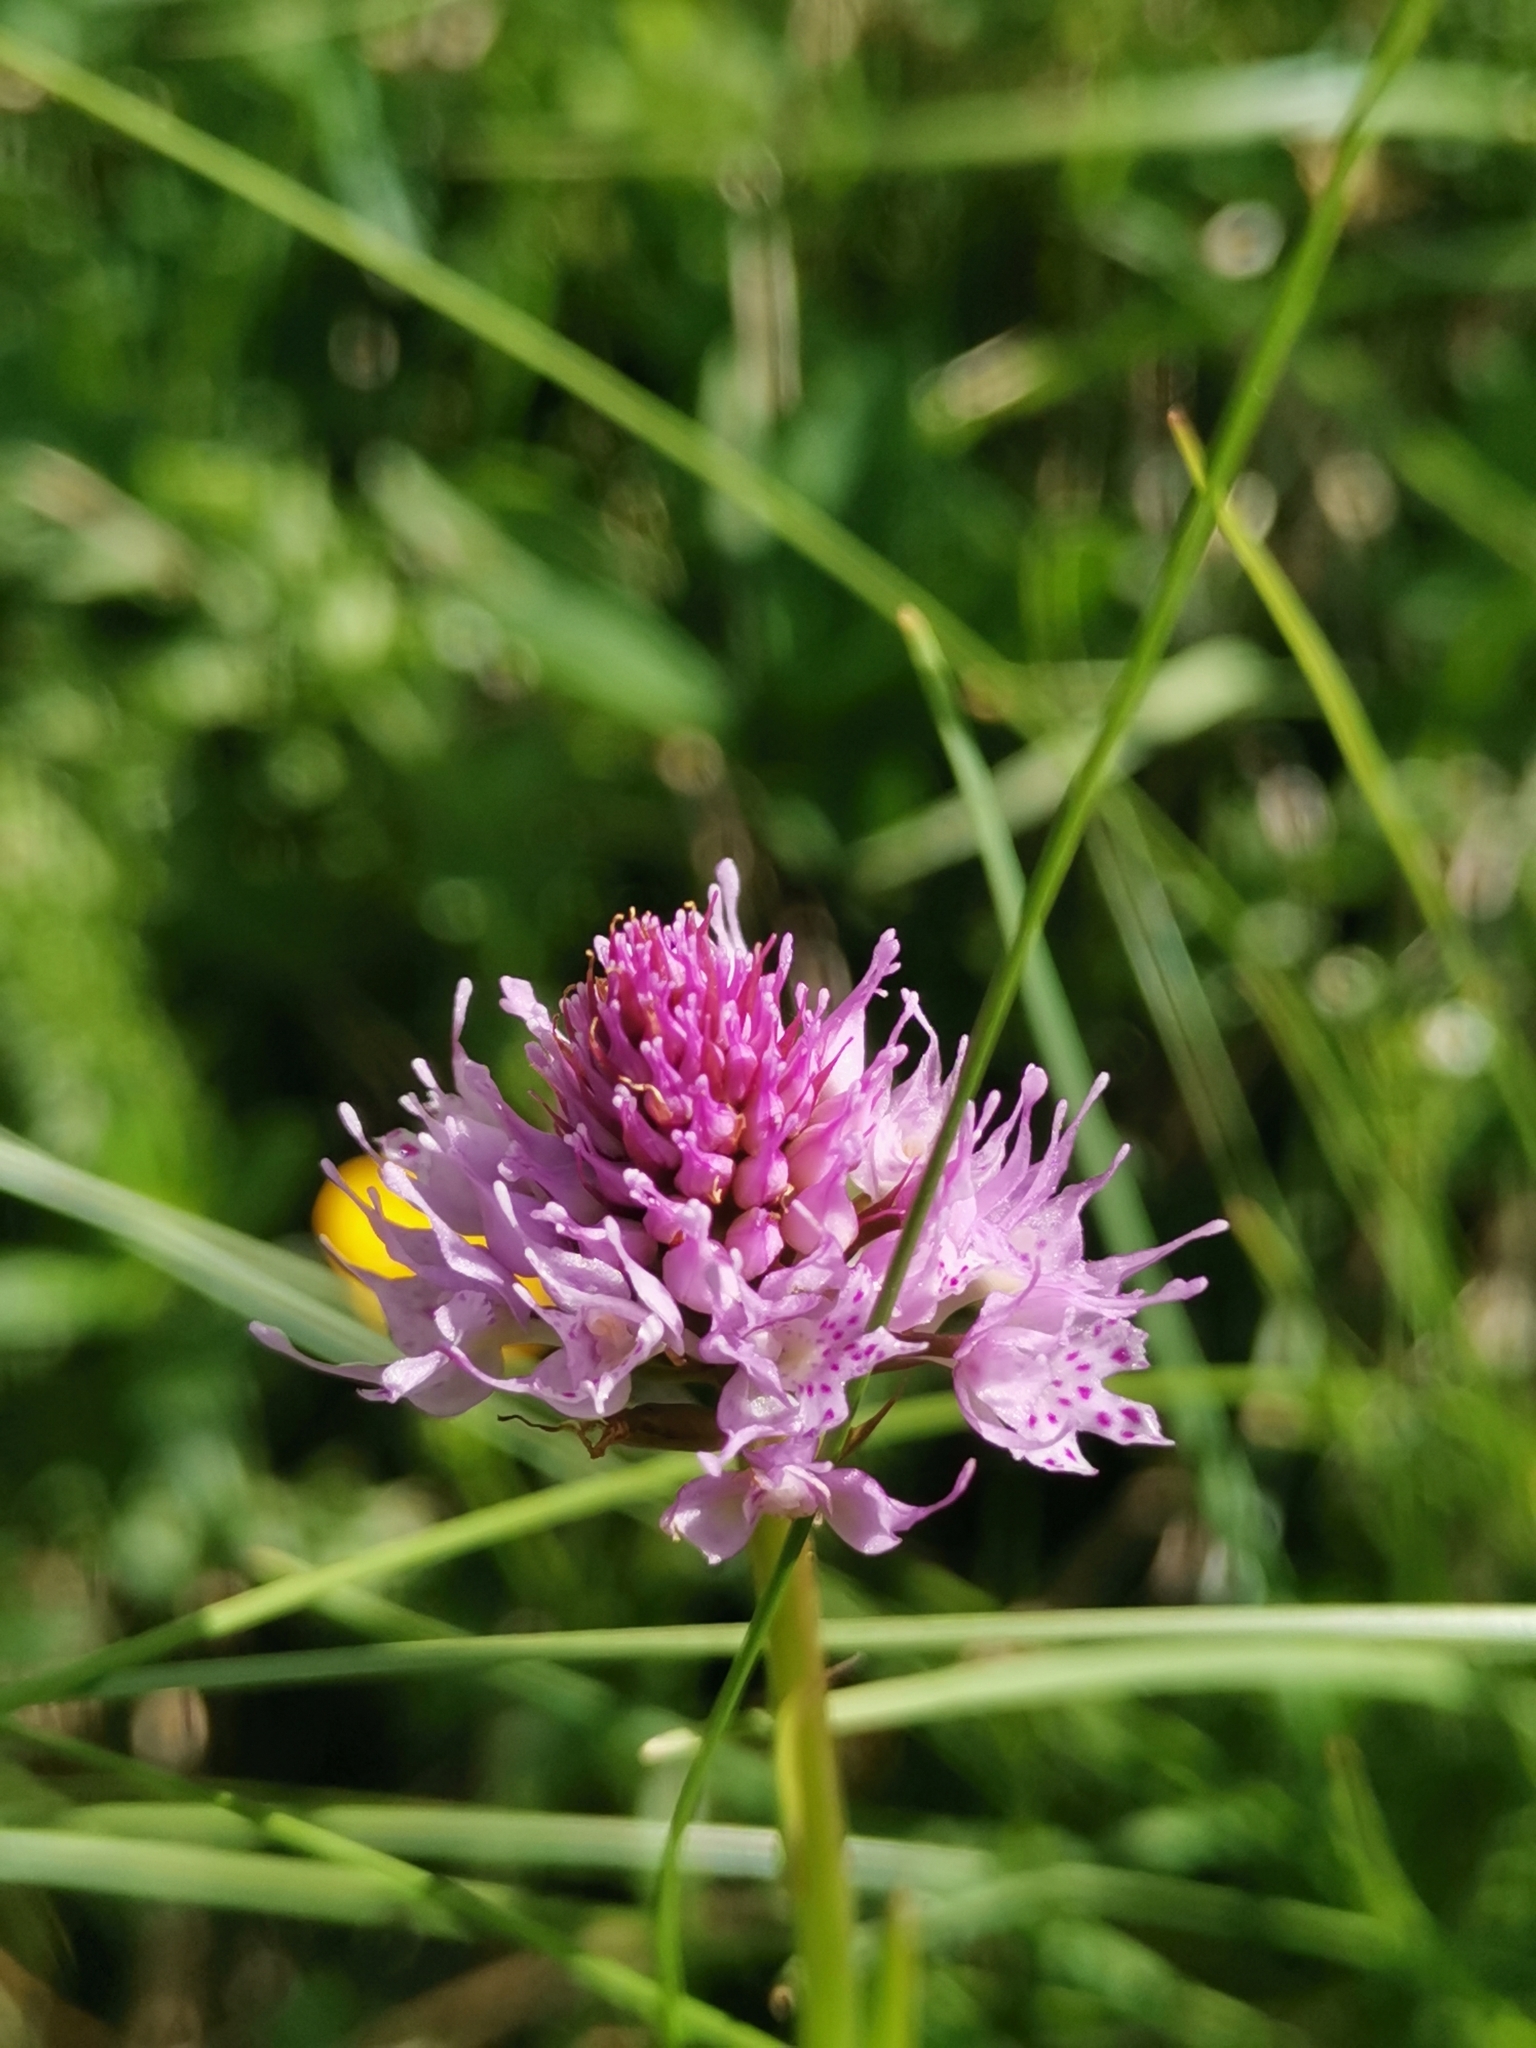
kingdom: Plantae
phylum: Tracheophyta
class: Liliopsida
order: Asparagales
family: Orchidaceae
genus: Traunsteinera
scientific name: Traunsteinera globosa
